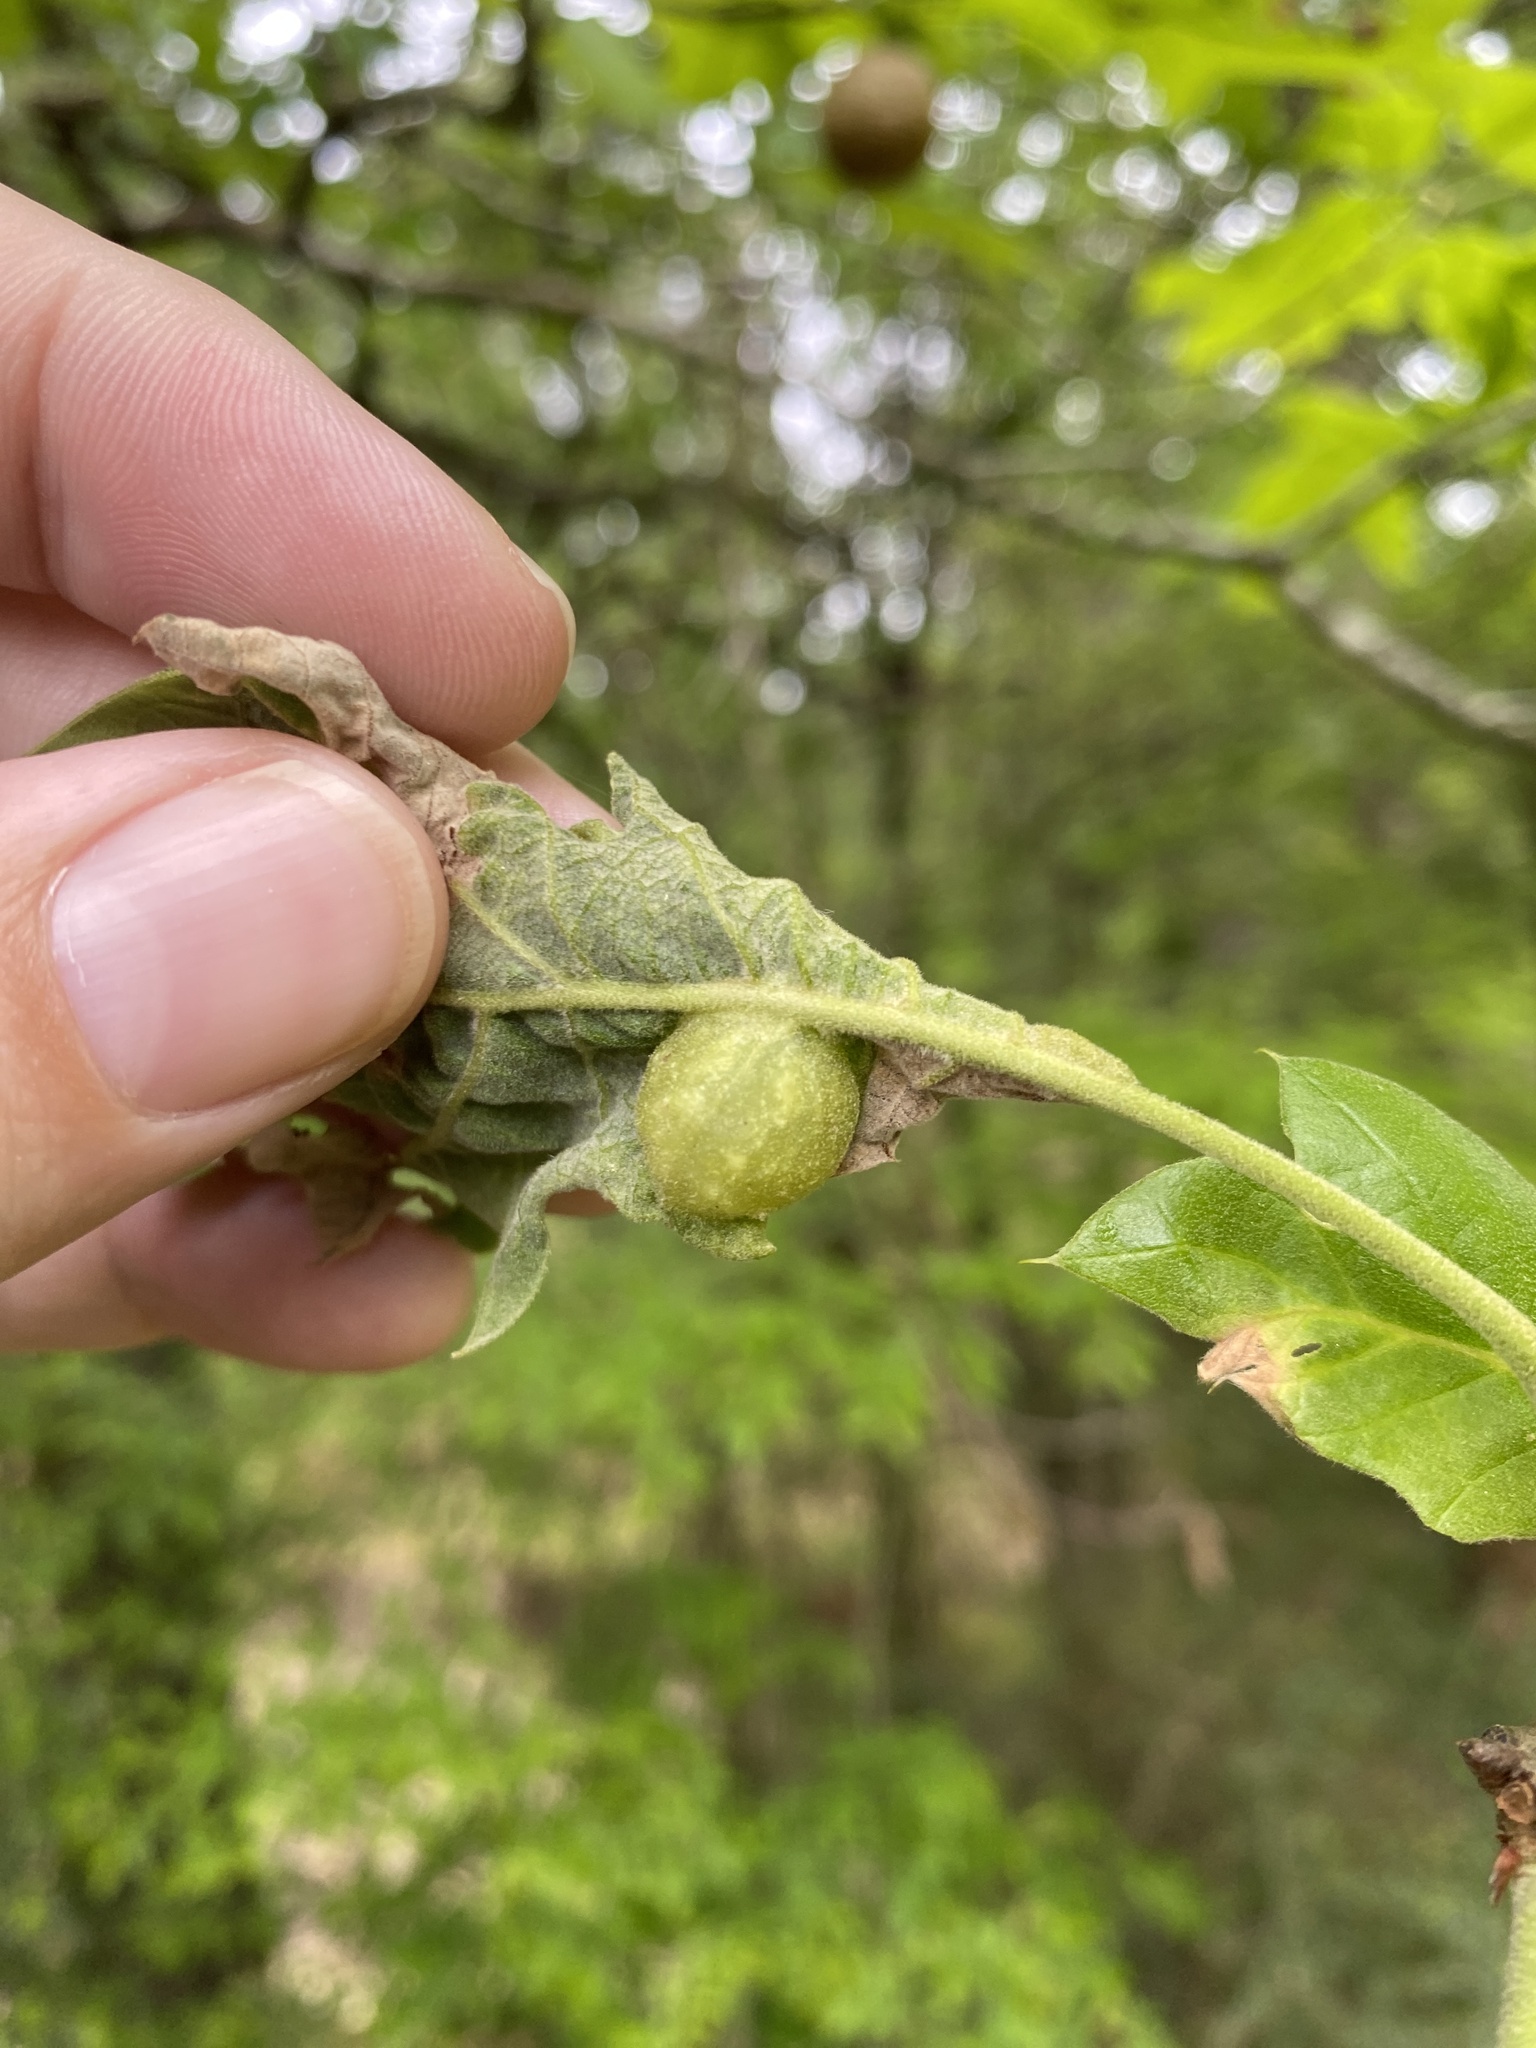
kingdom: Animalia
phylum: Arthropoda
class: Insecta
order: Hymenoptera
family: Cynipidae
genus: Dryocosmus
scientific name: Dryocosmus quercuspalustris
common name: Succulent oak gall wasp
